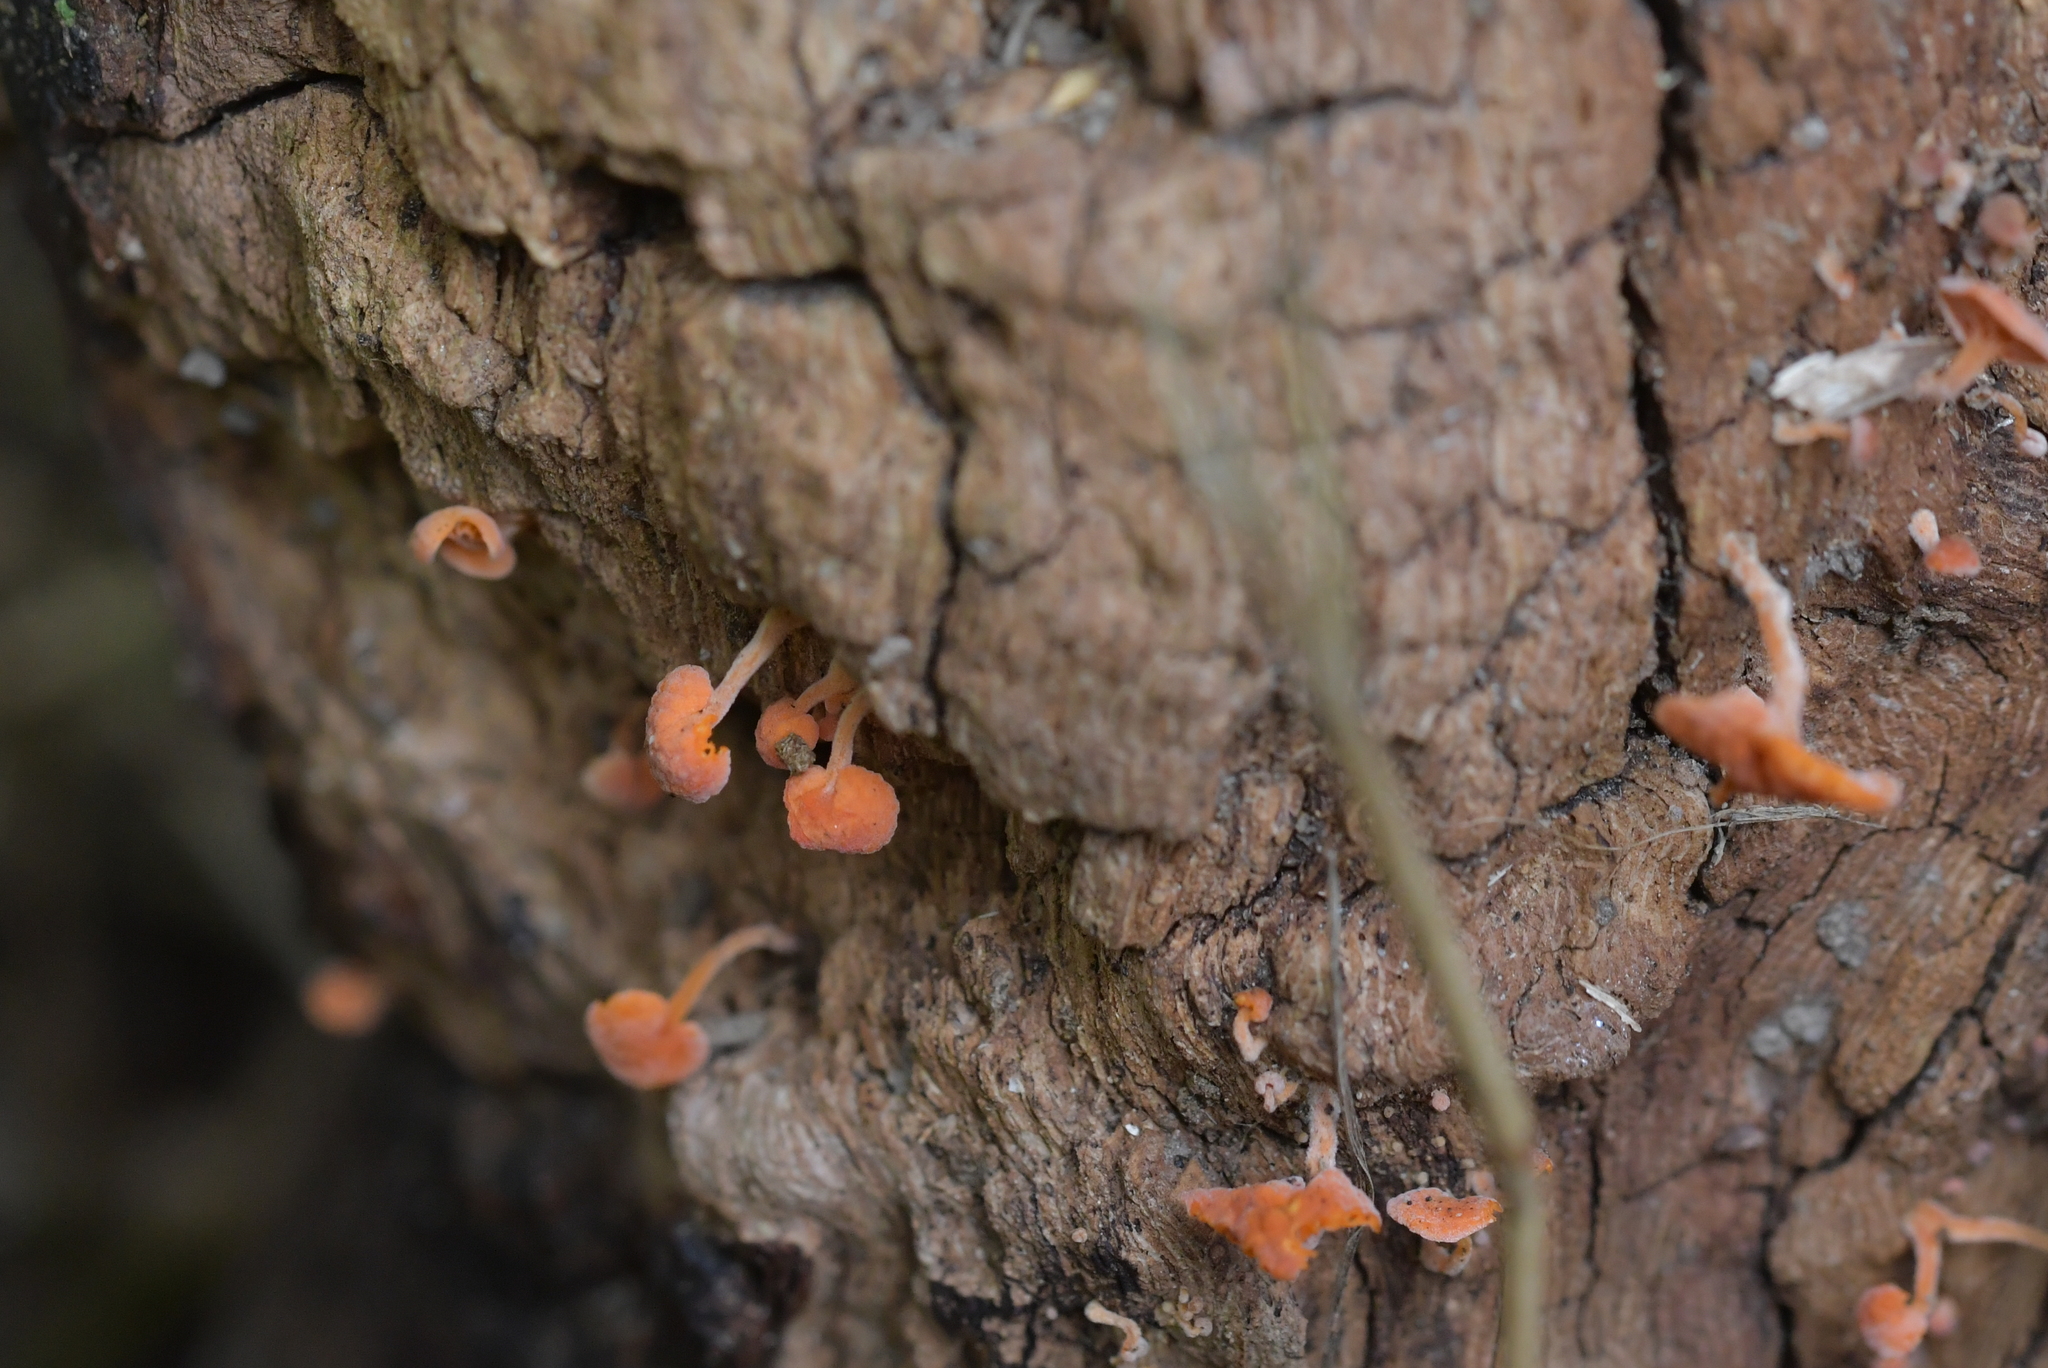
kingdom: Fungi
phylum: Basidiomycota
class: Agaricomycetes
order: Agaricales
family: Mycenaceae
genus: Favolaschia
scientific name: Favolaschia claudopus
